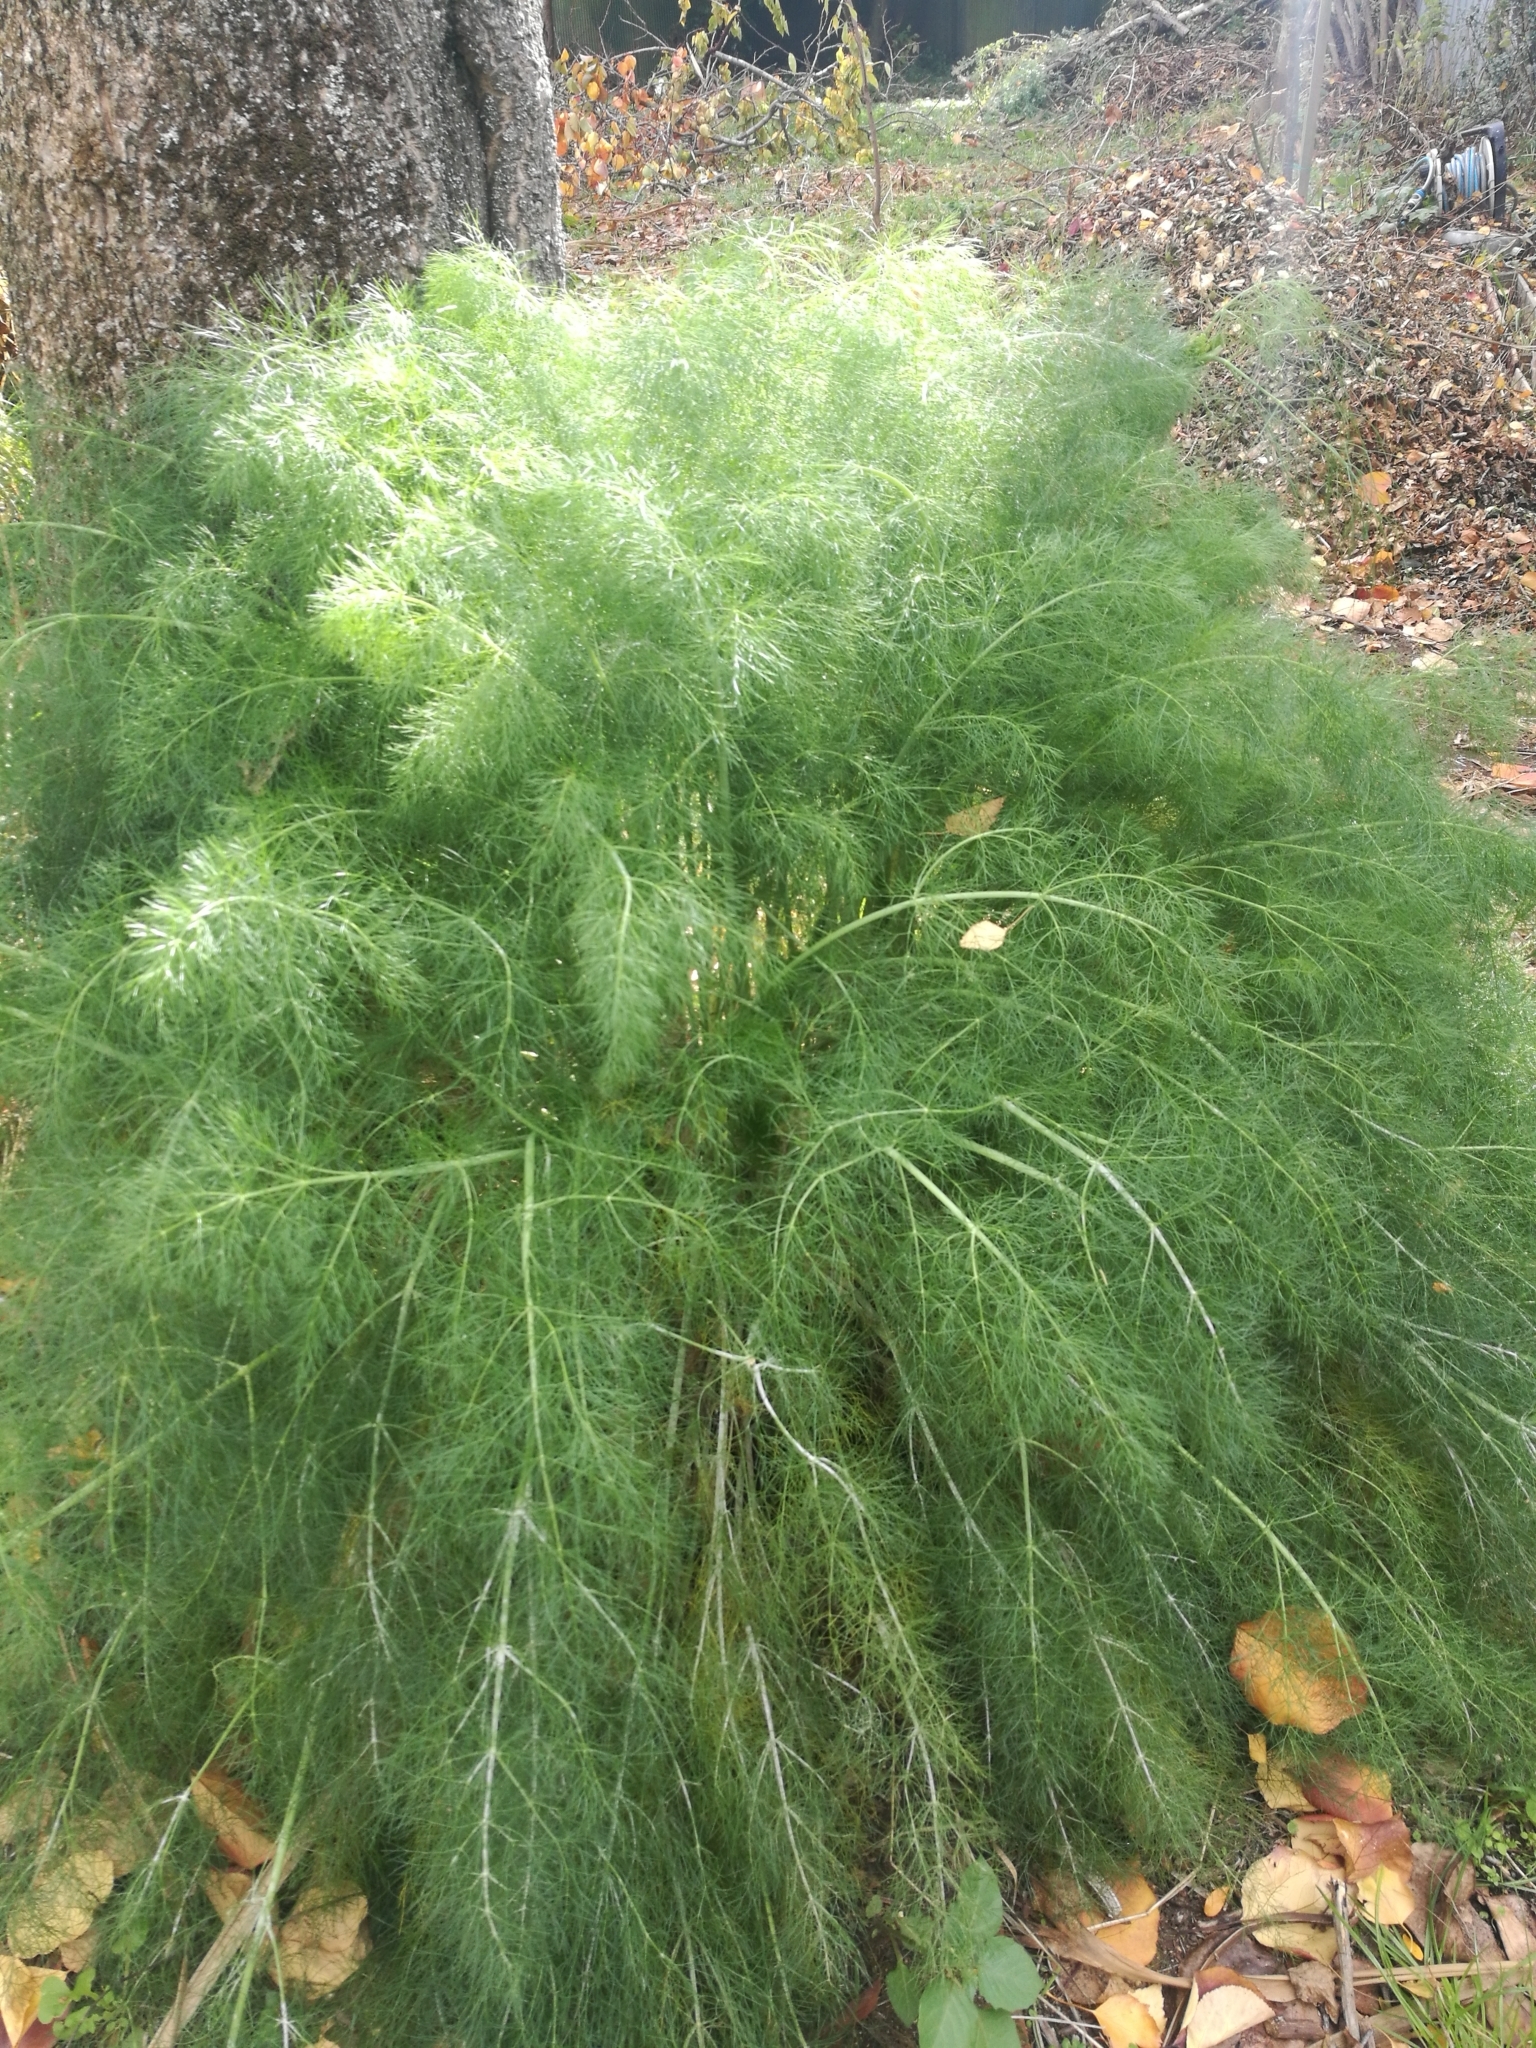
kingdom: Plantae
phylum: Tracheophyta
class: Magnoliopsida
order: Apiales
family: Apiaceae
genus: Foeniculum
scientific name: Foeniculum vulgare
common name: Fennel
